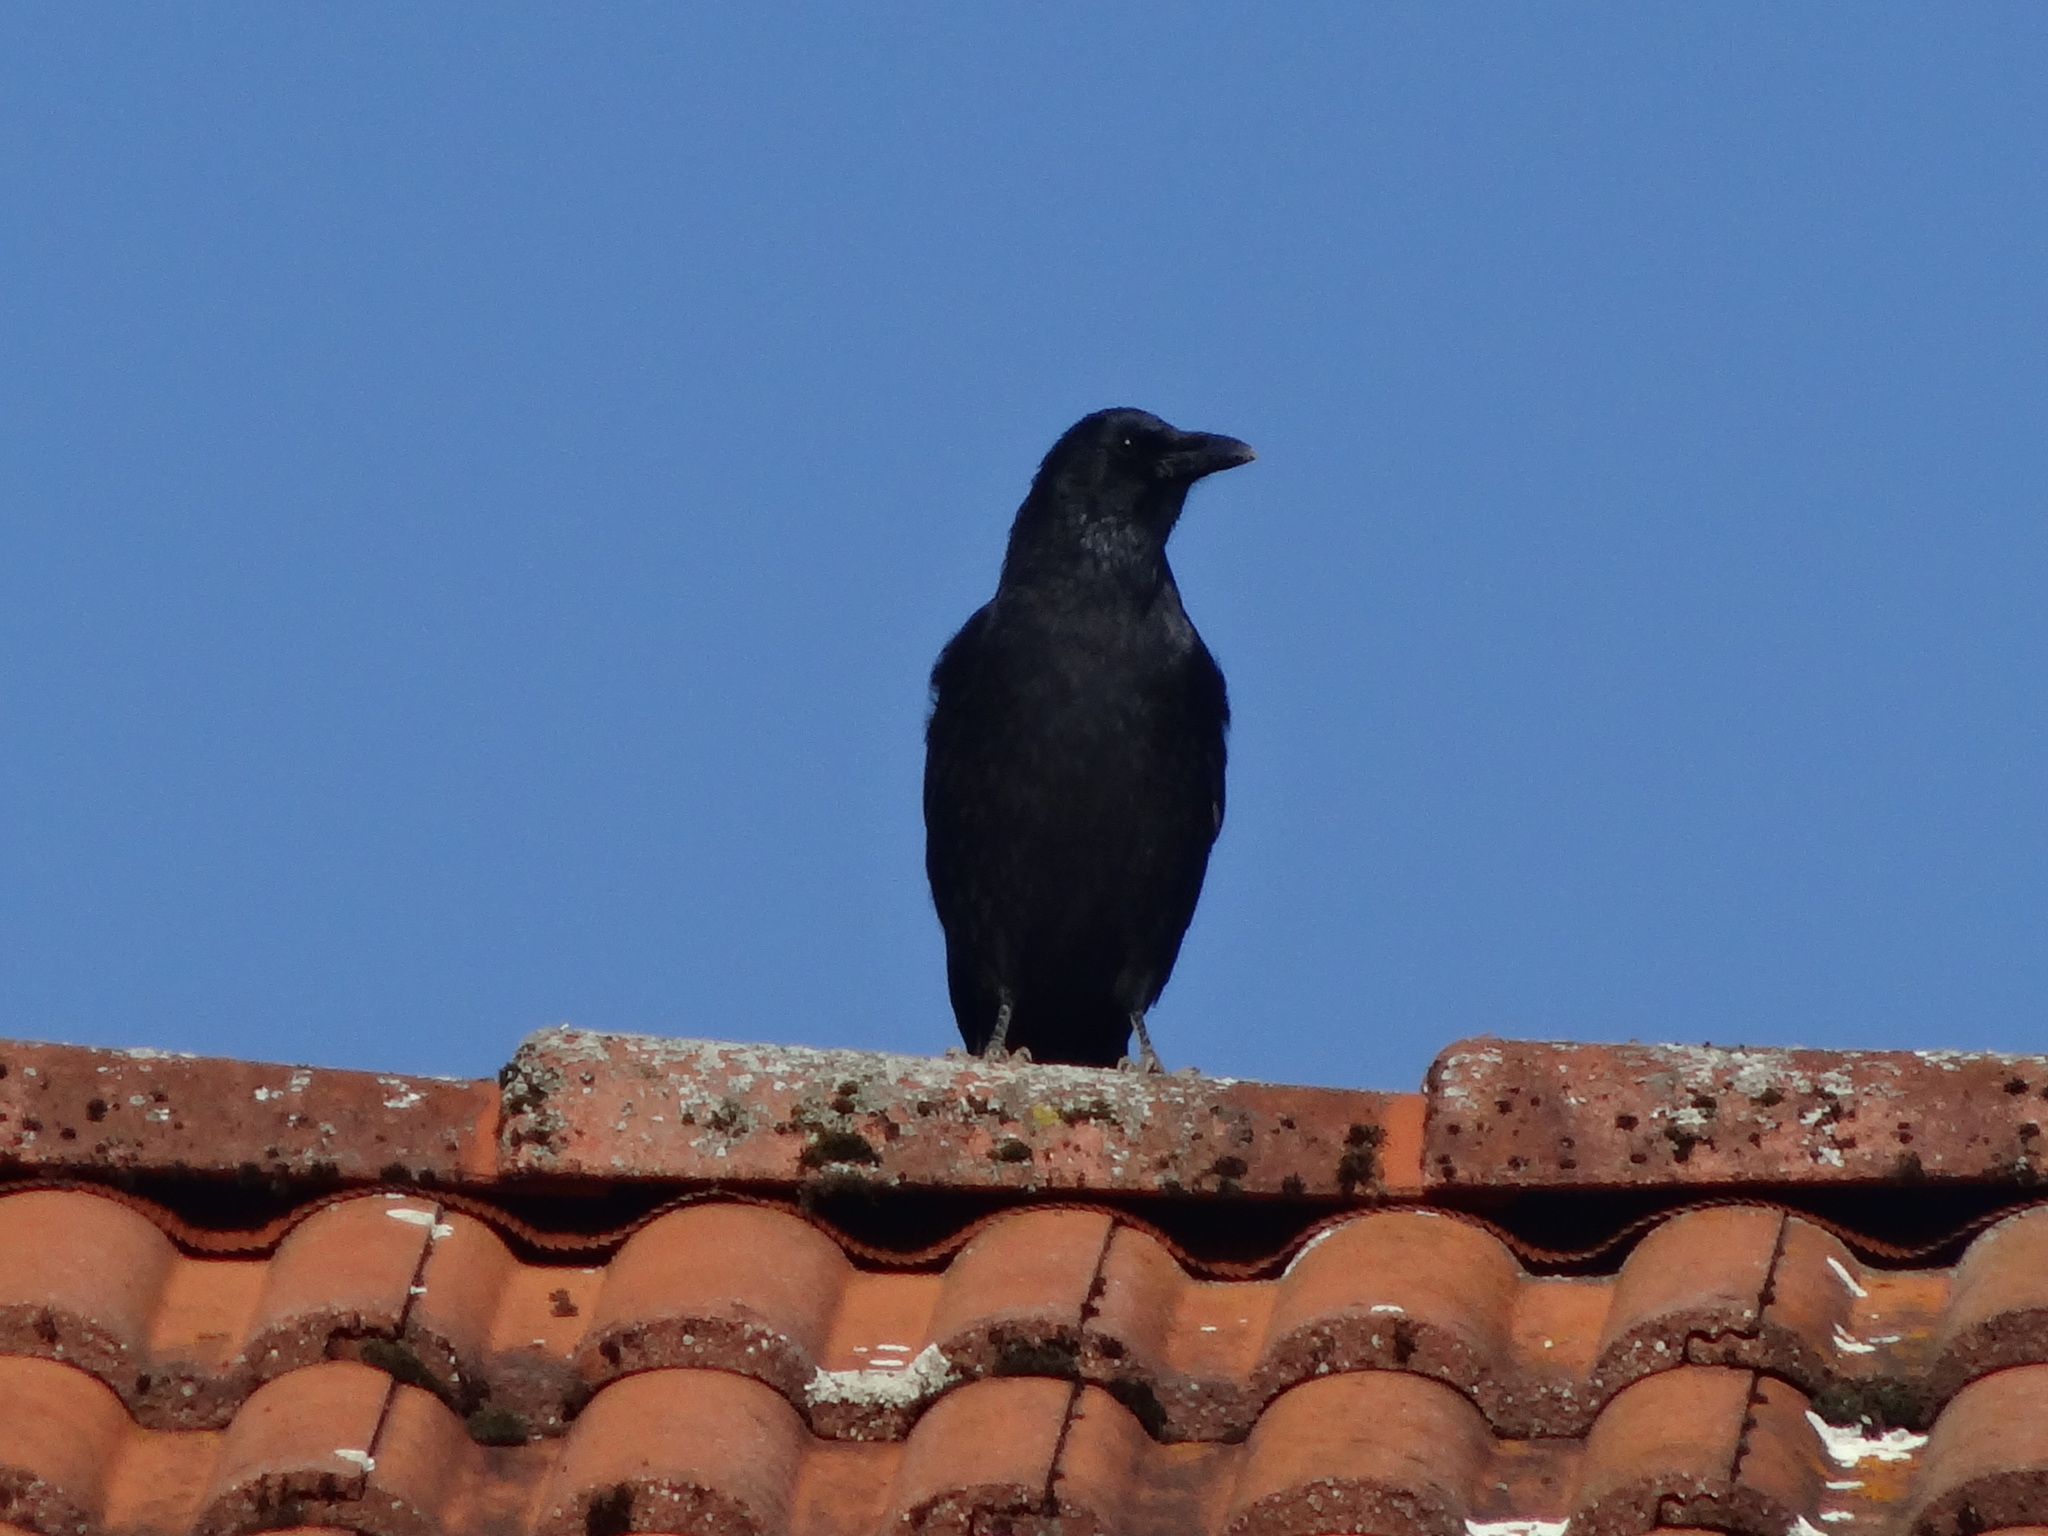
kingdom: Animalia
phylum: Chordata
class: Aves
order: Passeriformes
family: Corvidae
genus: Corvus
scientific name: Corvus corone
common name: Carrion crow
